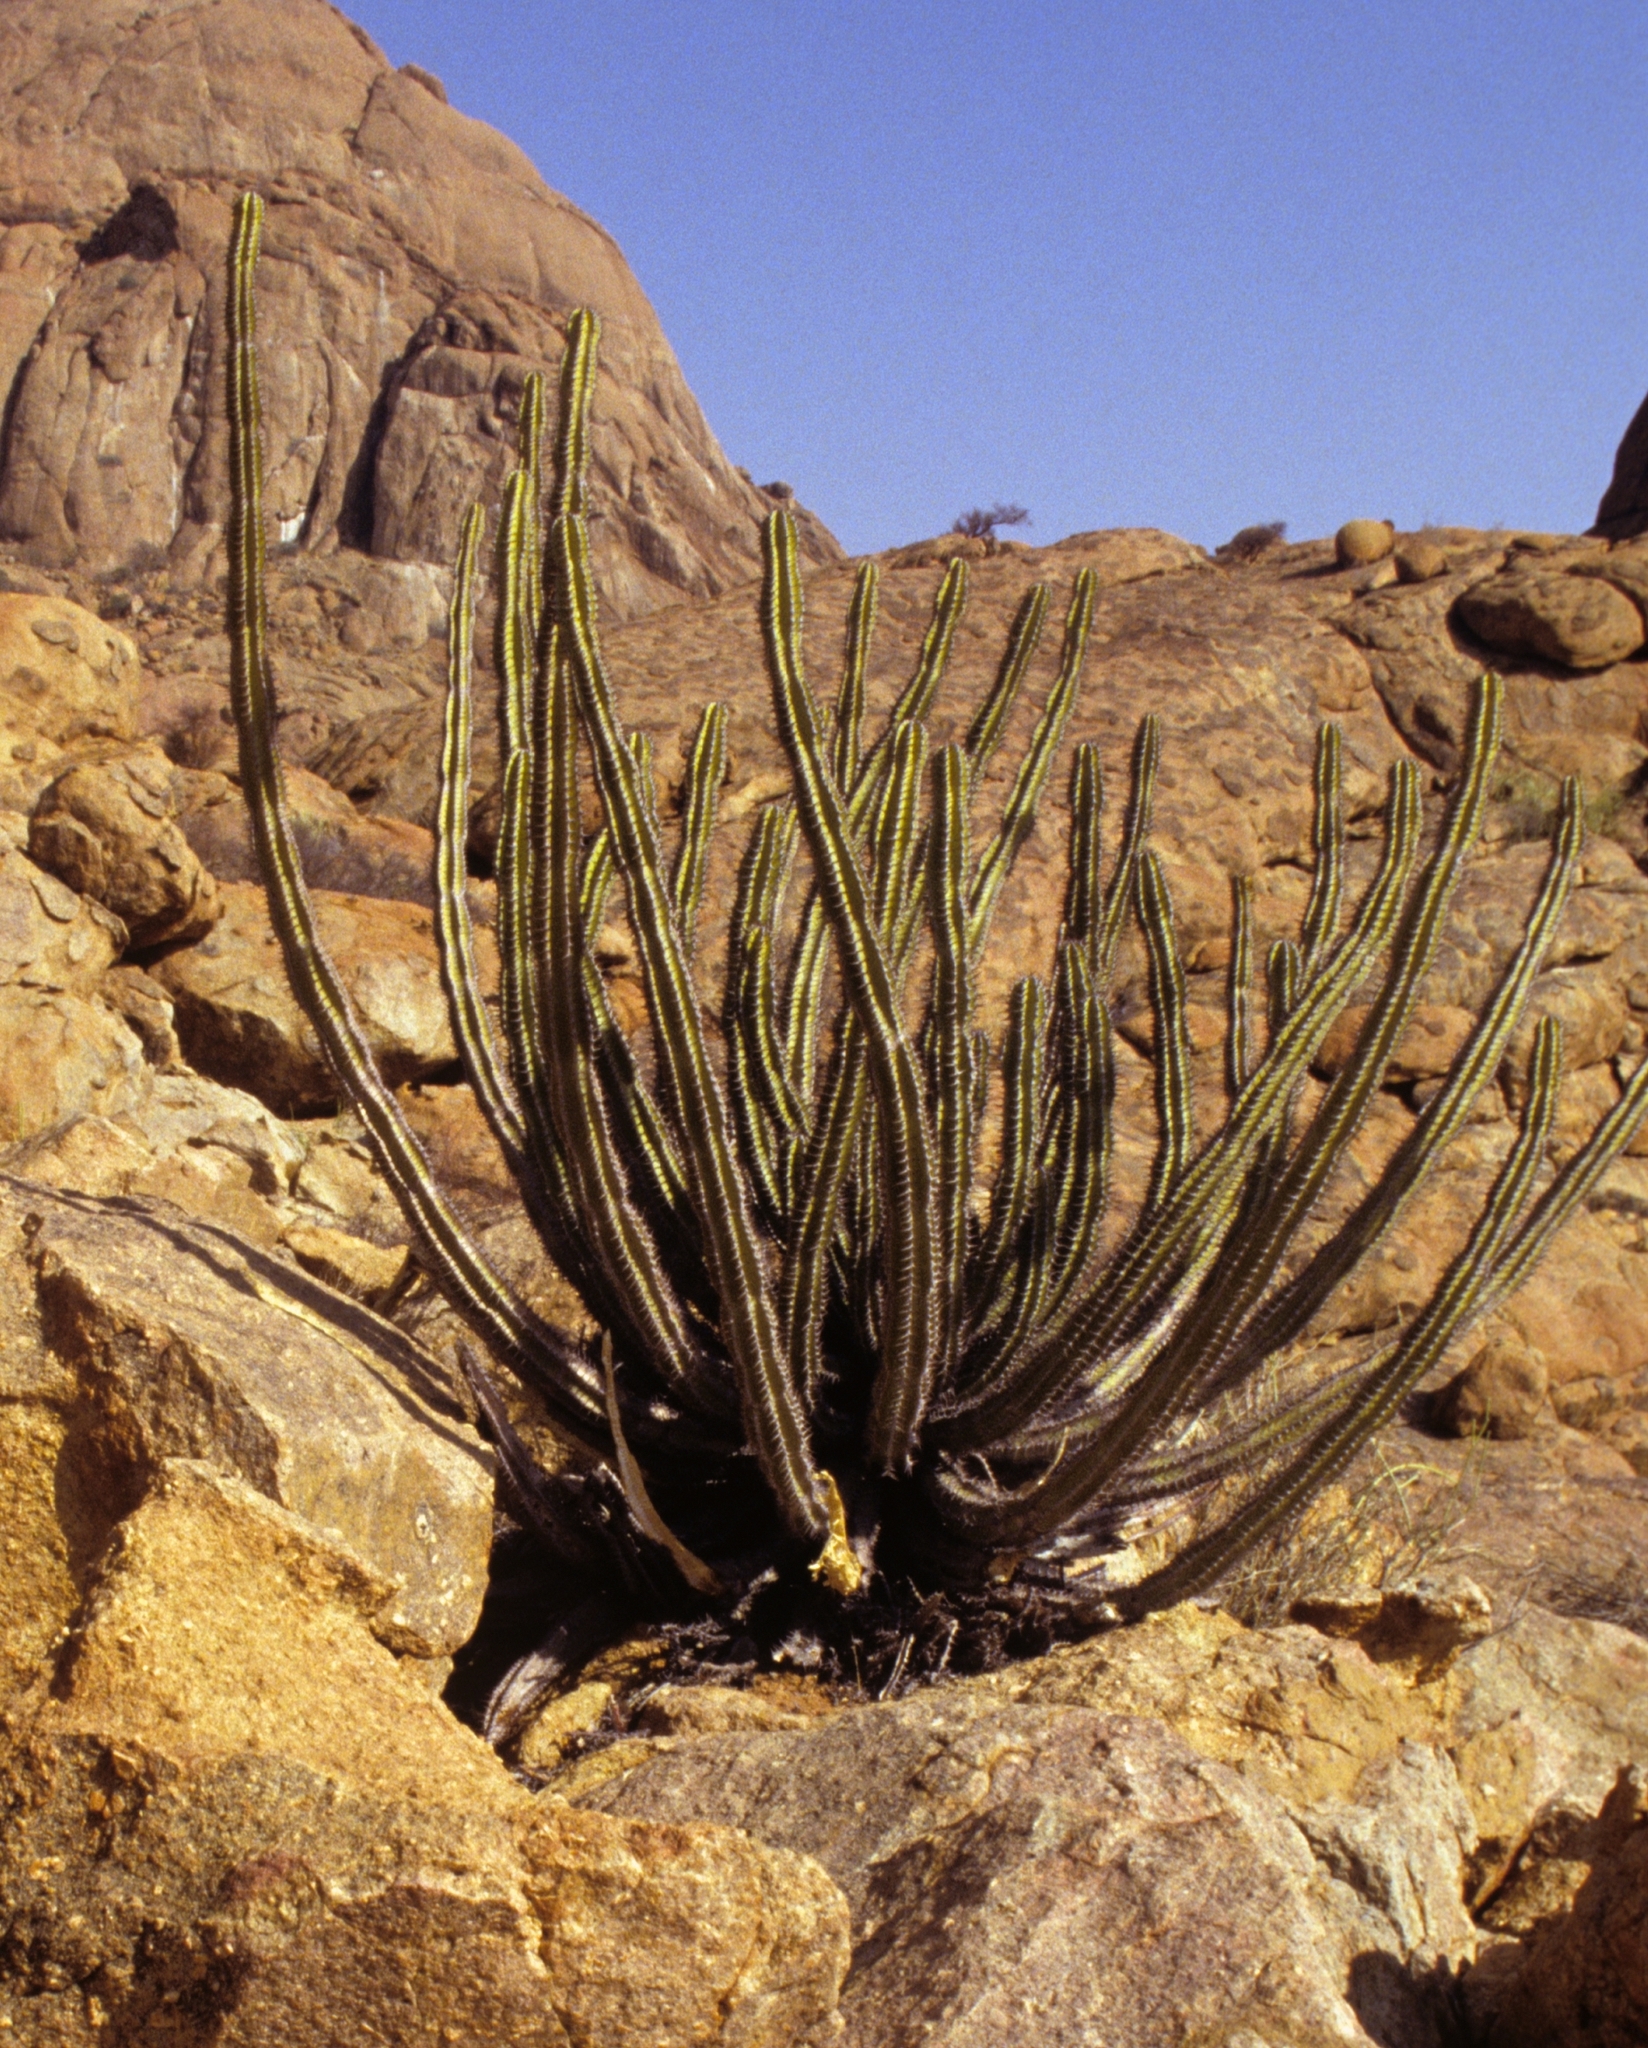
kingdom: Plantae
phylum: Tracheophyta
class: Magnoliopsida
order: Malpighiales
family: Euphorbiaceae
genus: Euphorbia
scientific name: Euphorbia virosa
